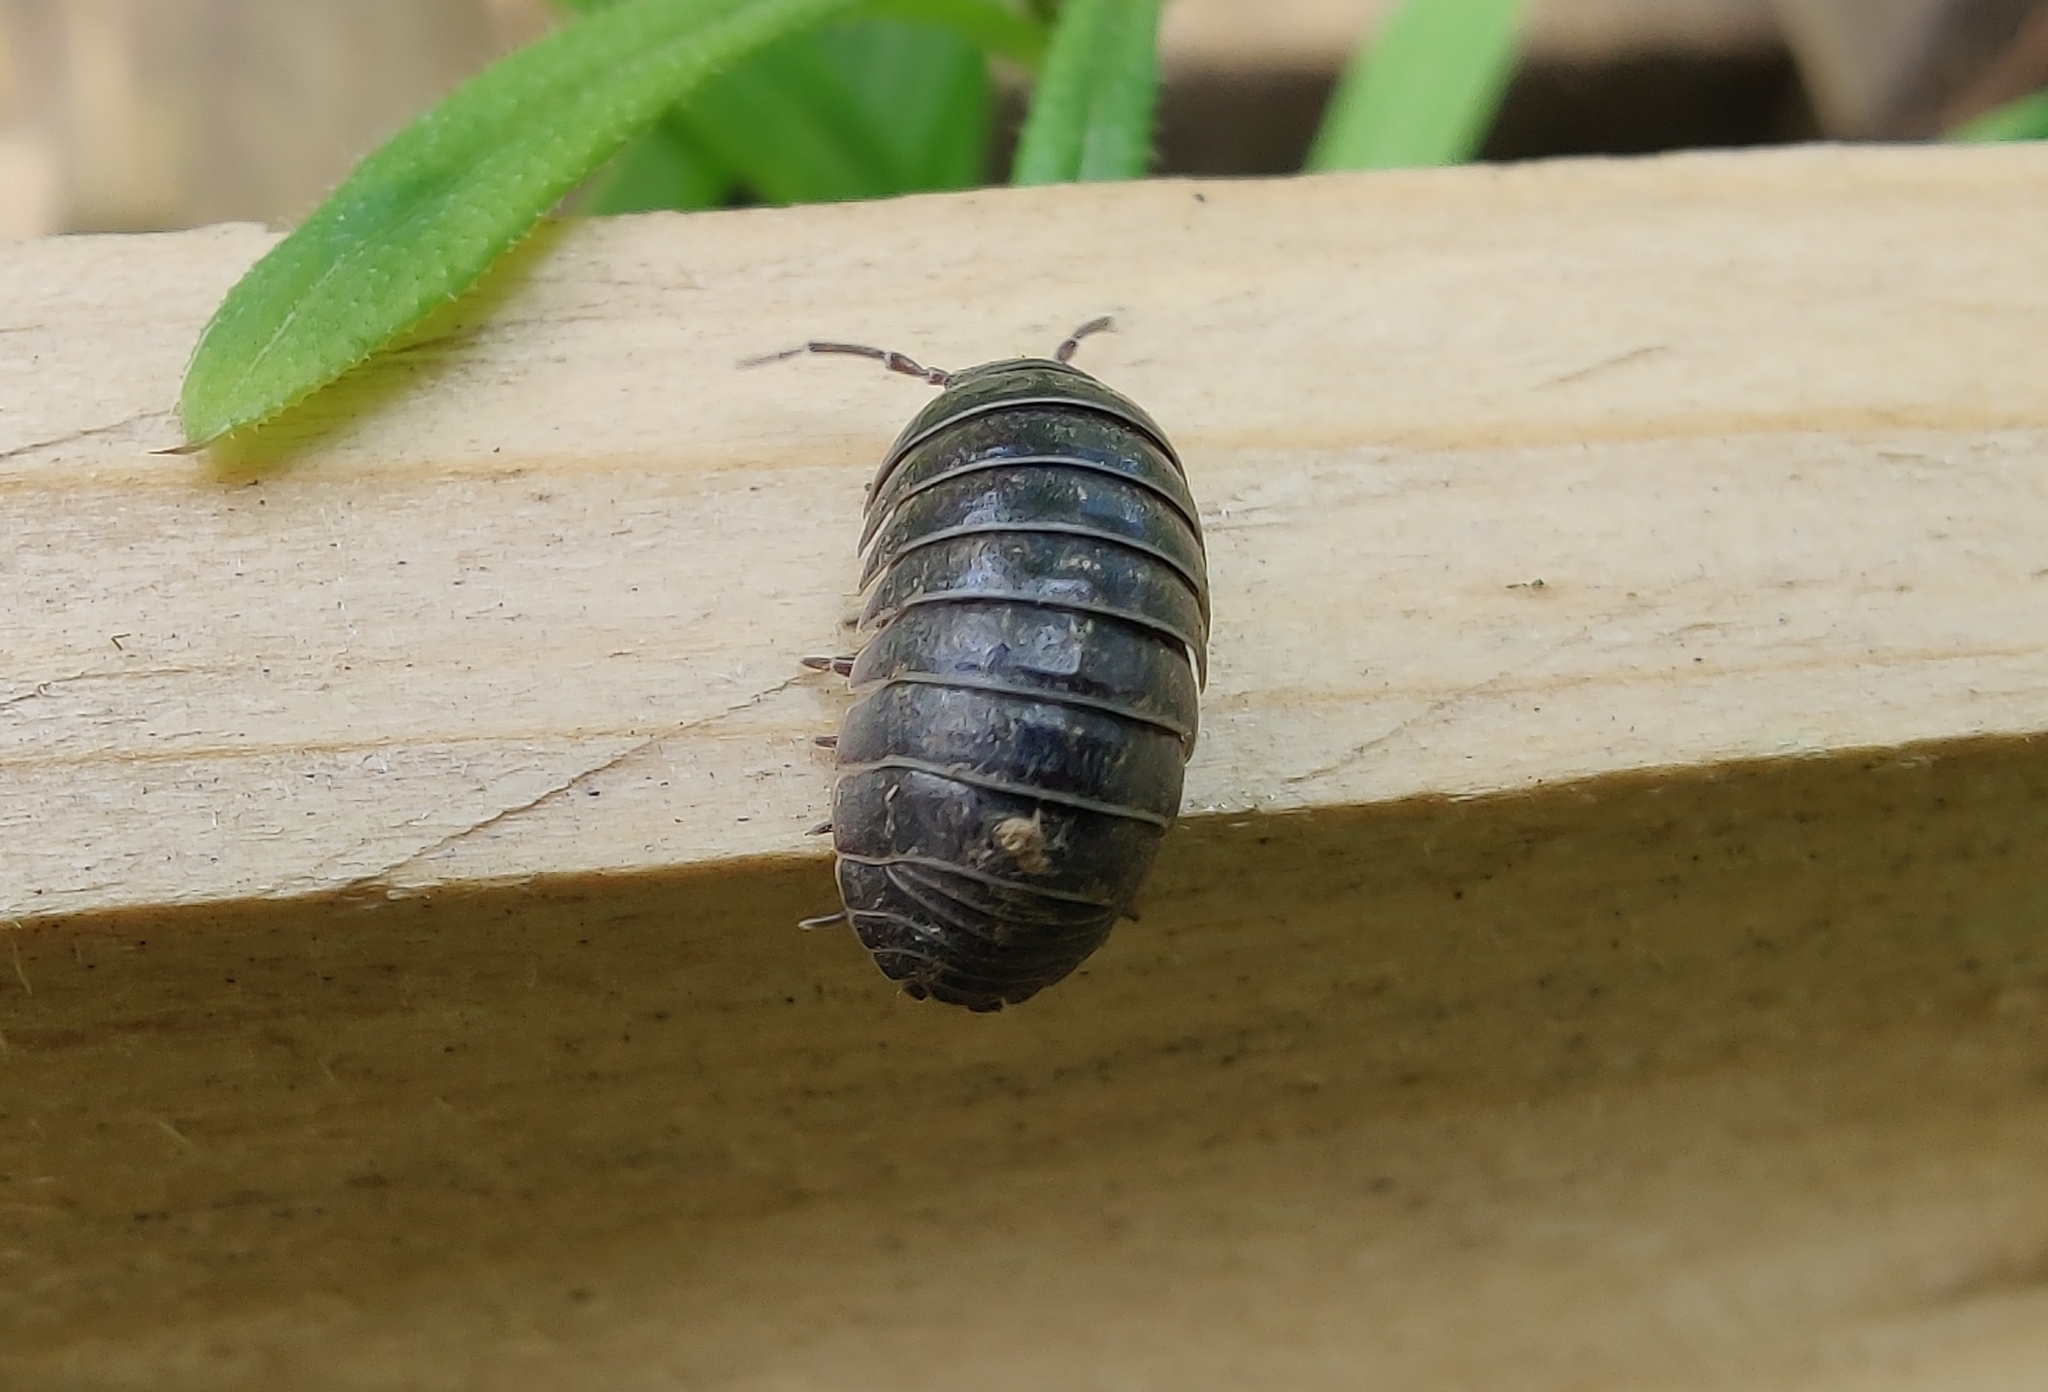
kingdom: Animalia
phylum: Arthropoda
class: Malacostraca
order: Isopoda
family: Armadillidiidae
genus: Armadillidium
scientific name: Armadillidium vulgare
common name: Common pill woodlouse
